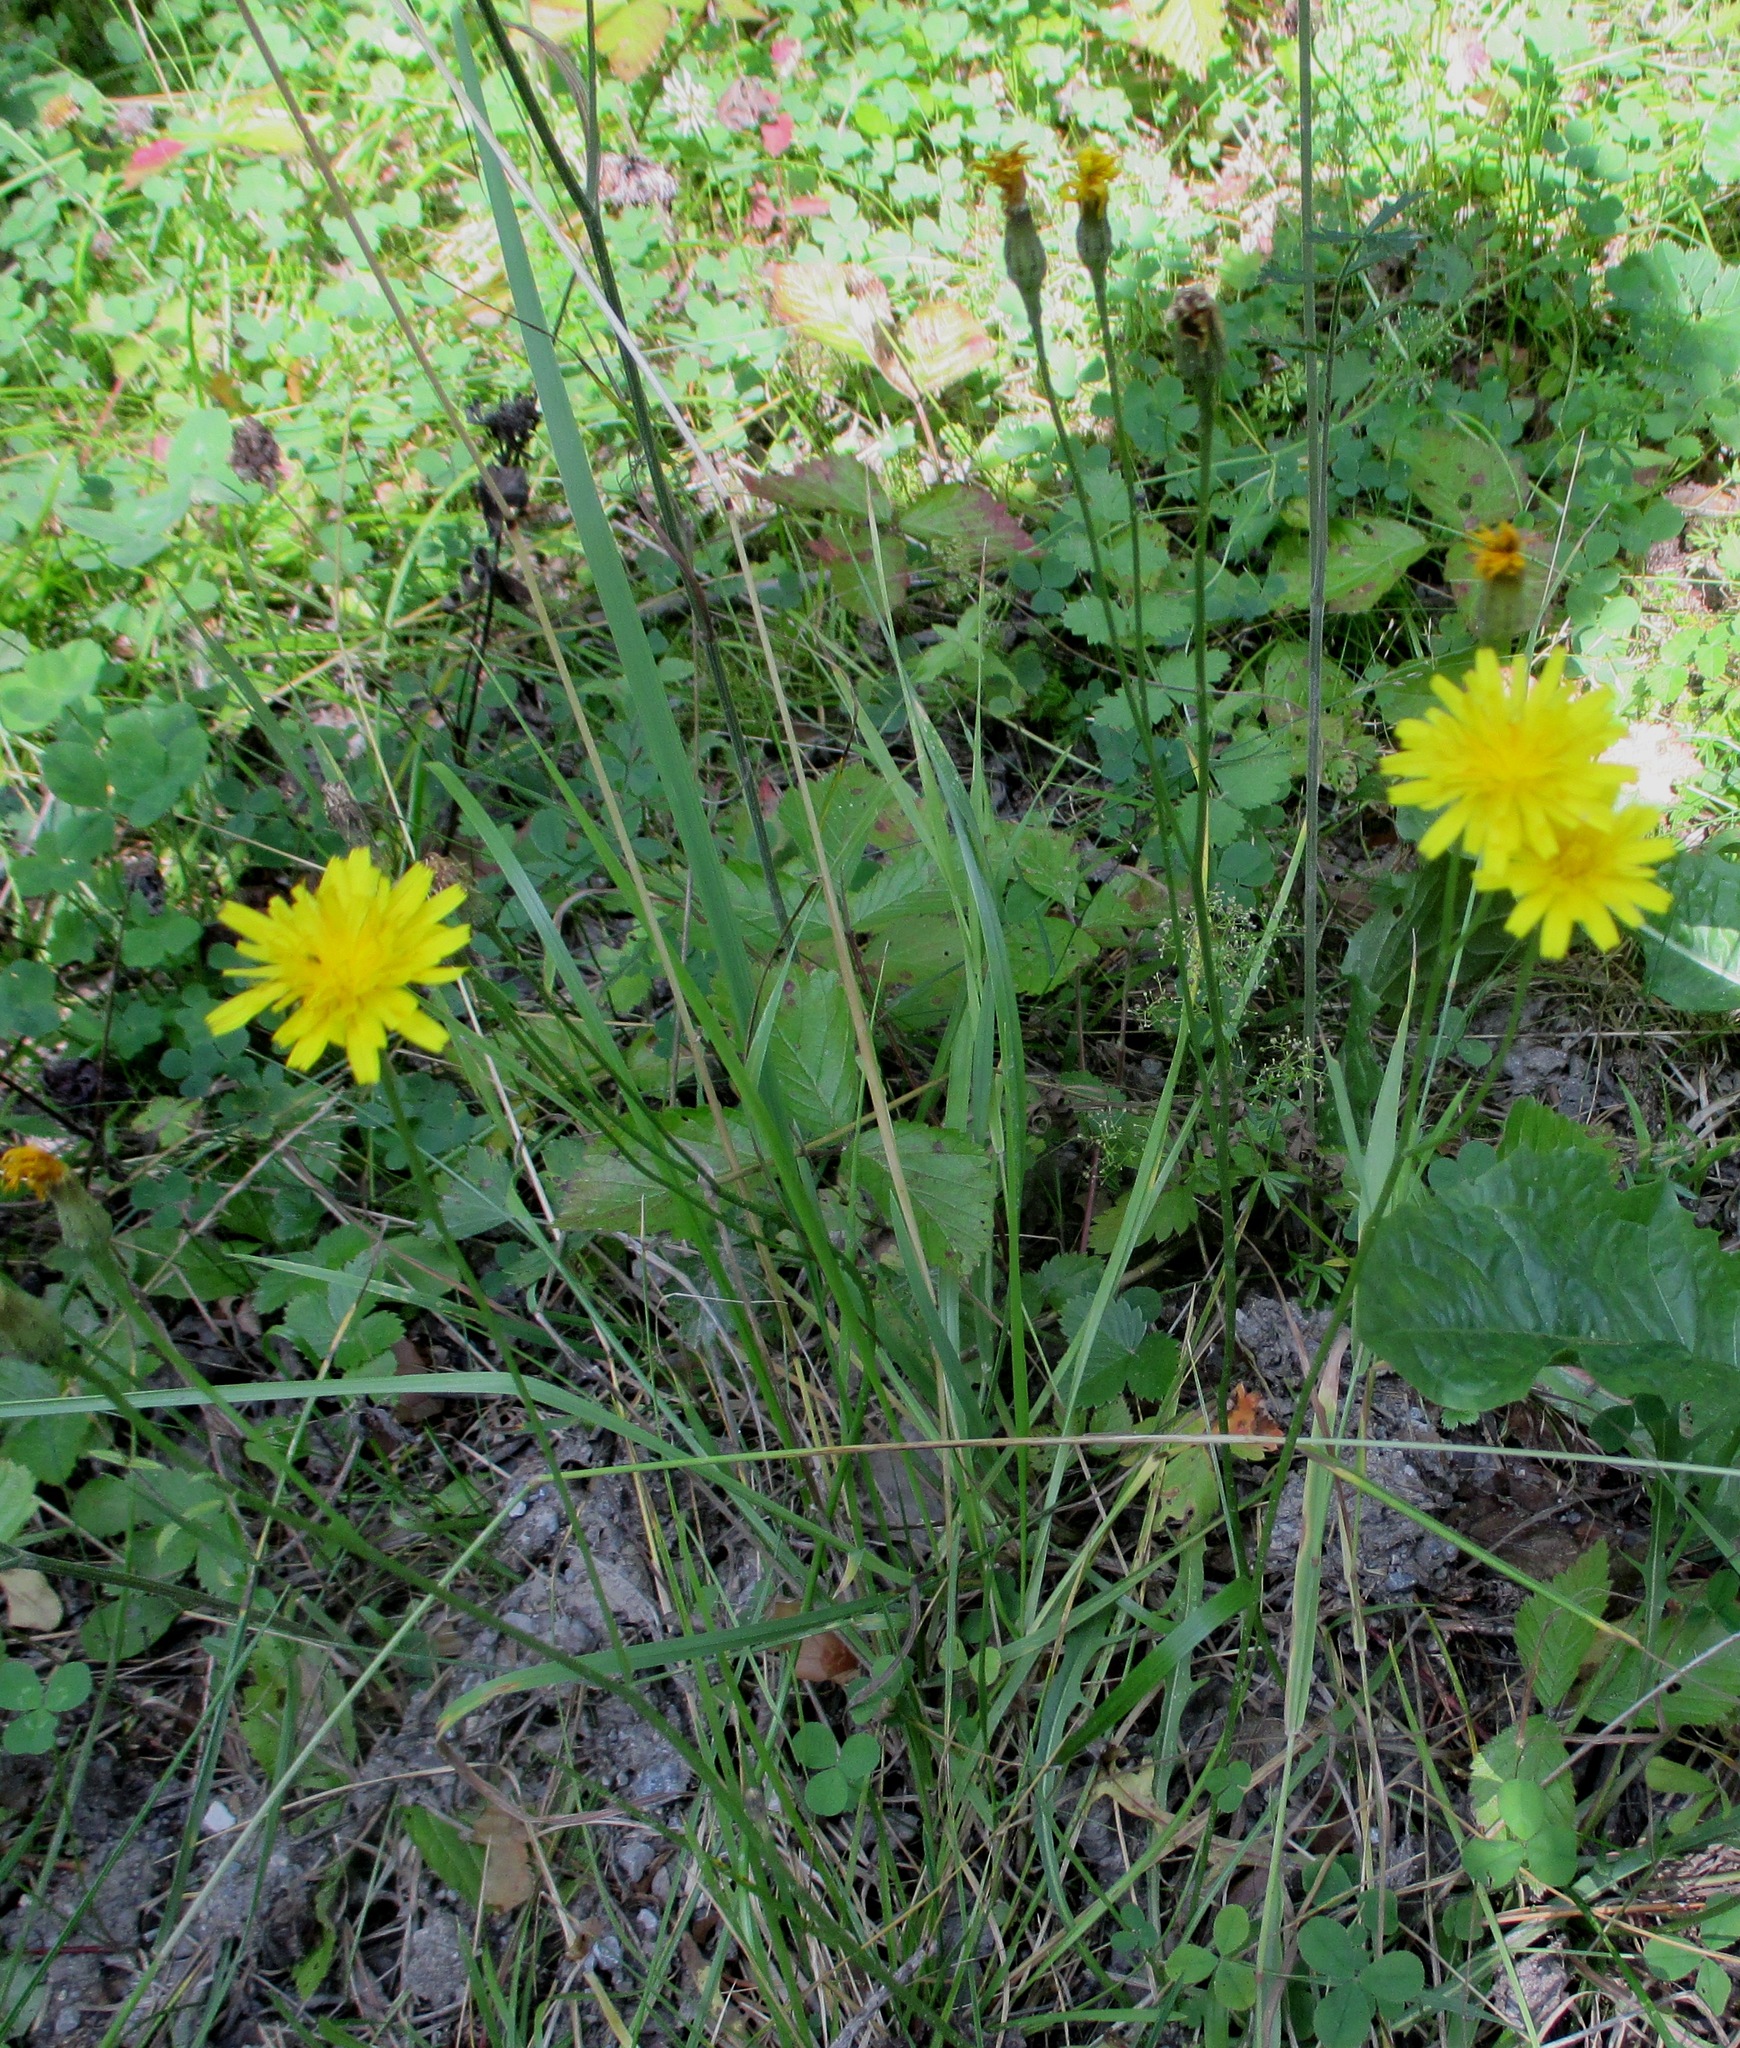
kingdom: Plantae
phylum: Tracheophyta
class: Magnoliopsida
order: Asterales
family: Asteraceae
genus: Scorzoneroides
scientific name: Scorzoneroides autumnalis
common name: Autumn hawkbit
